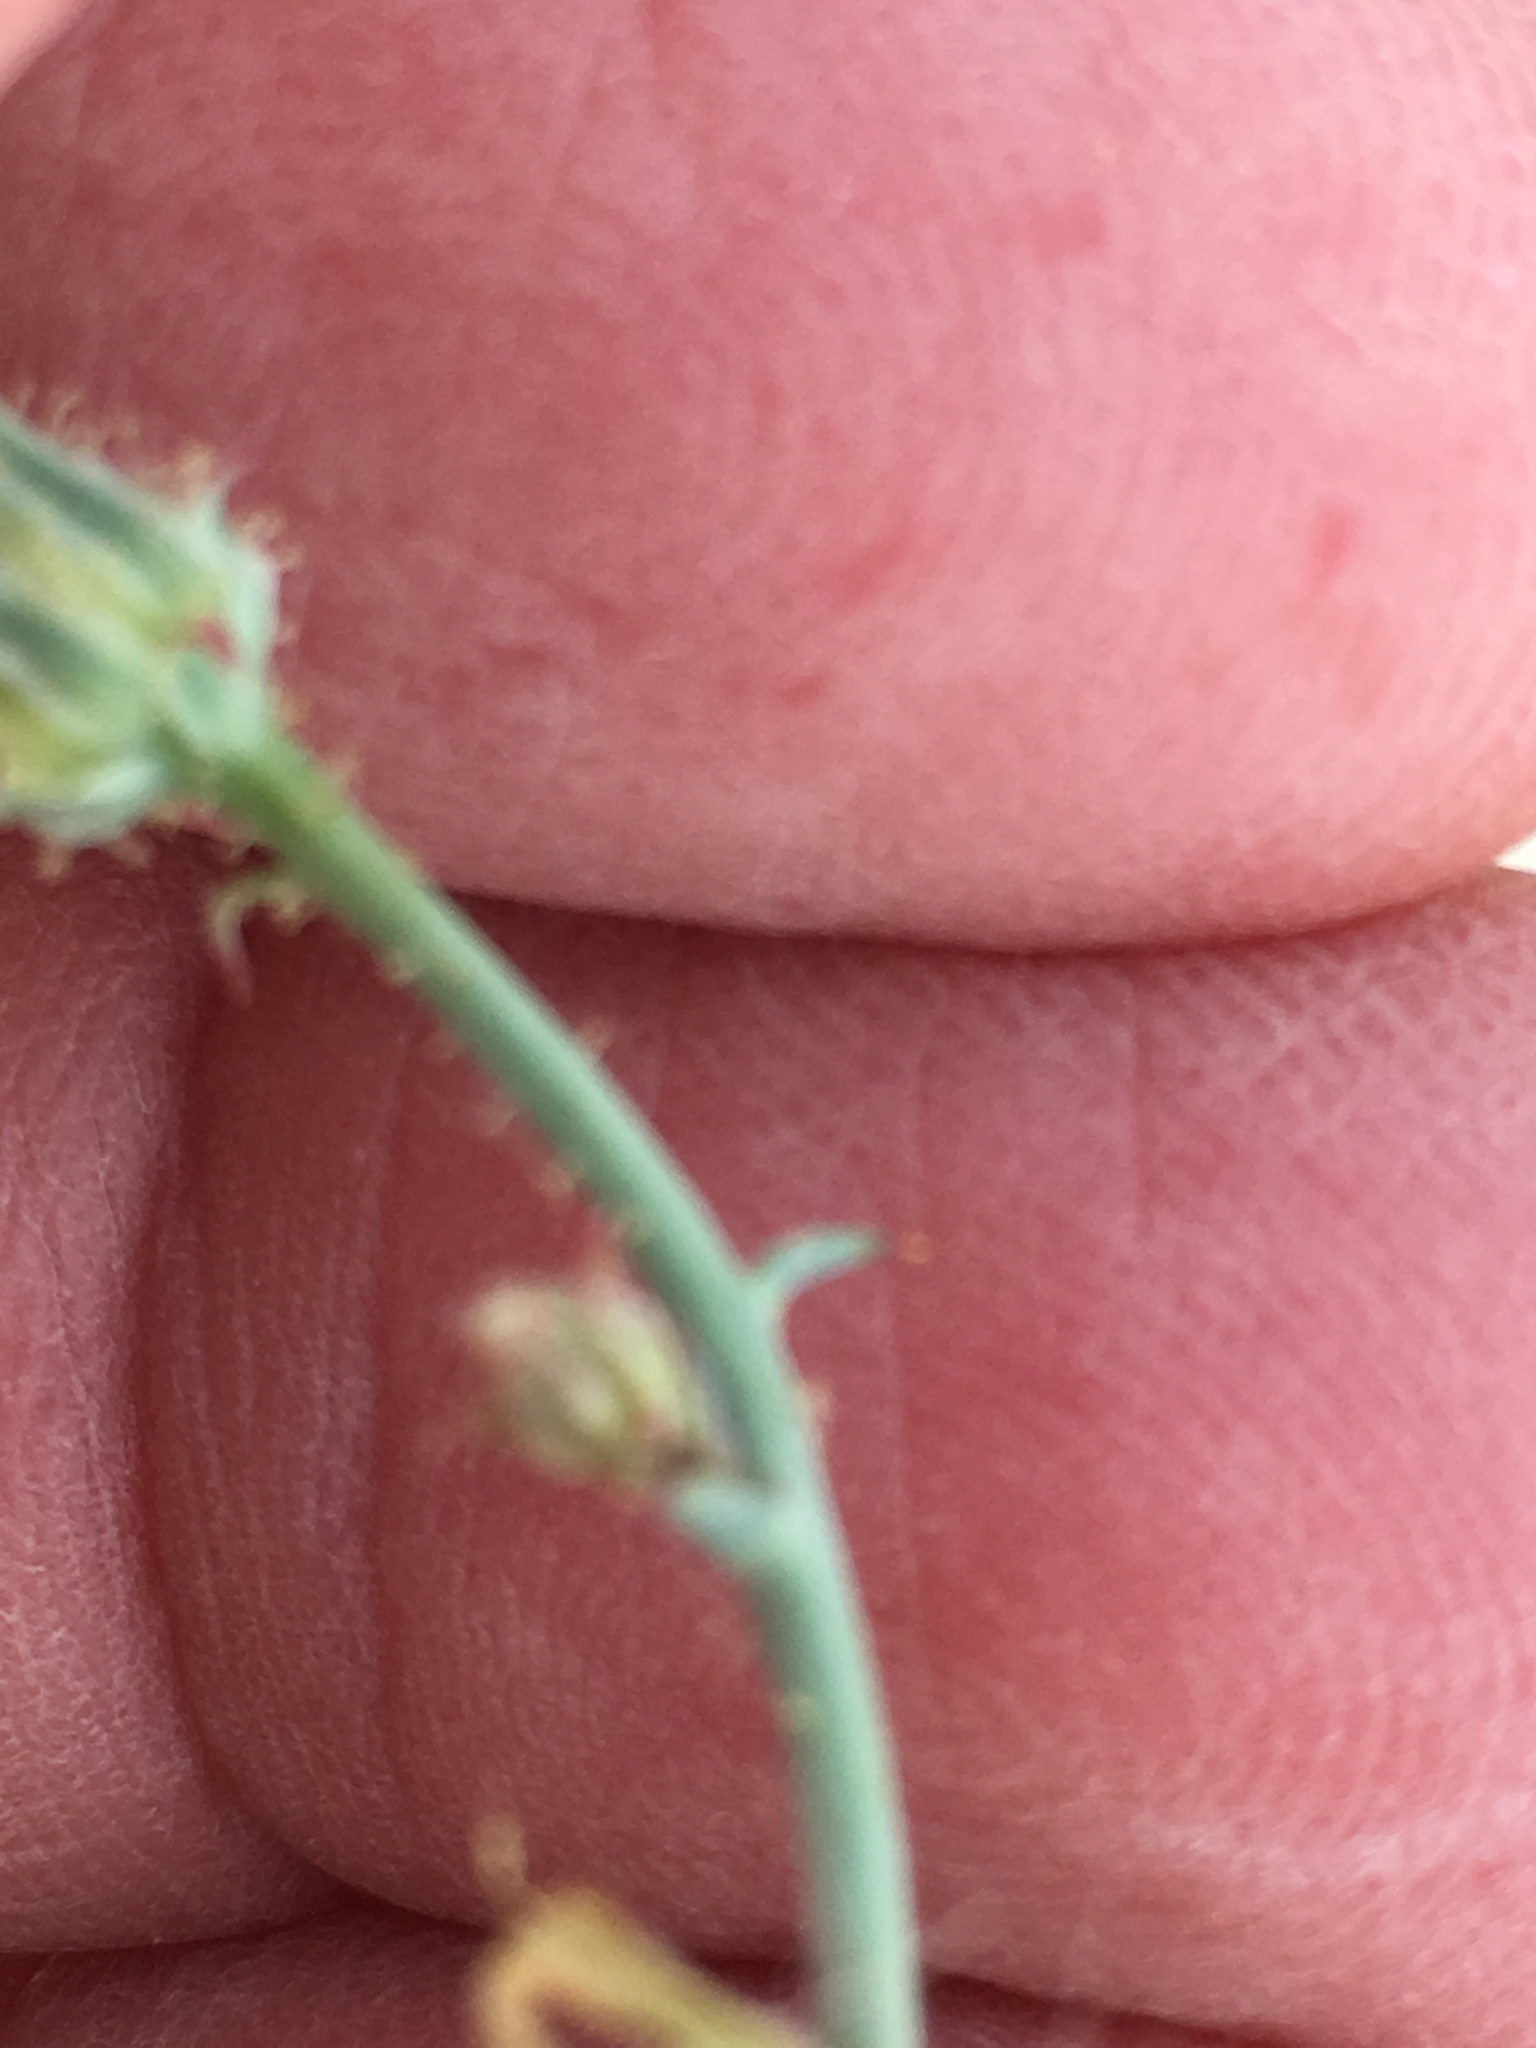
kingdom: Plantae
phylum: Tracheophyta
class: Magnoliopsida
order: Asterales
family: Asteraceae
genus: Calycoseris
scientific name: Calycoseris wrightii
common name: White tackstem
